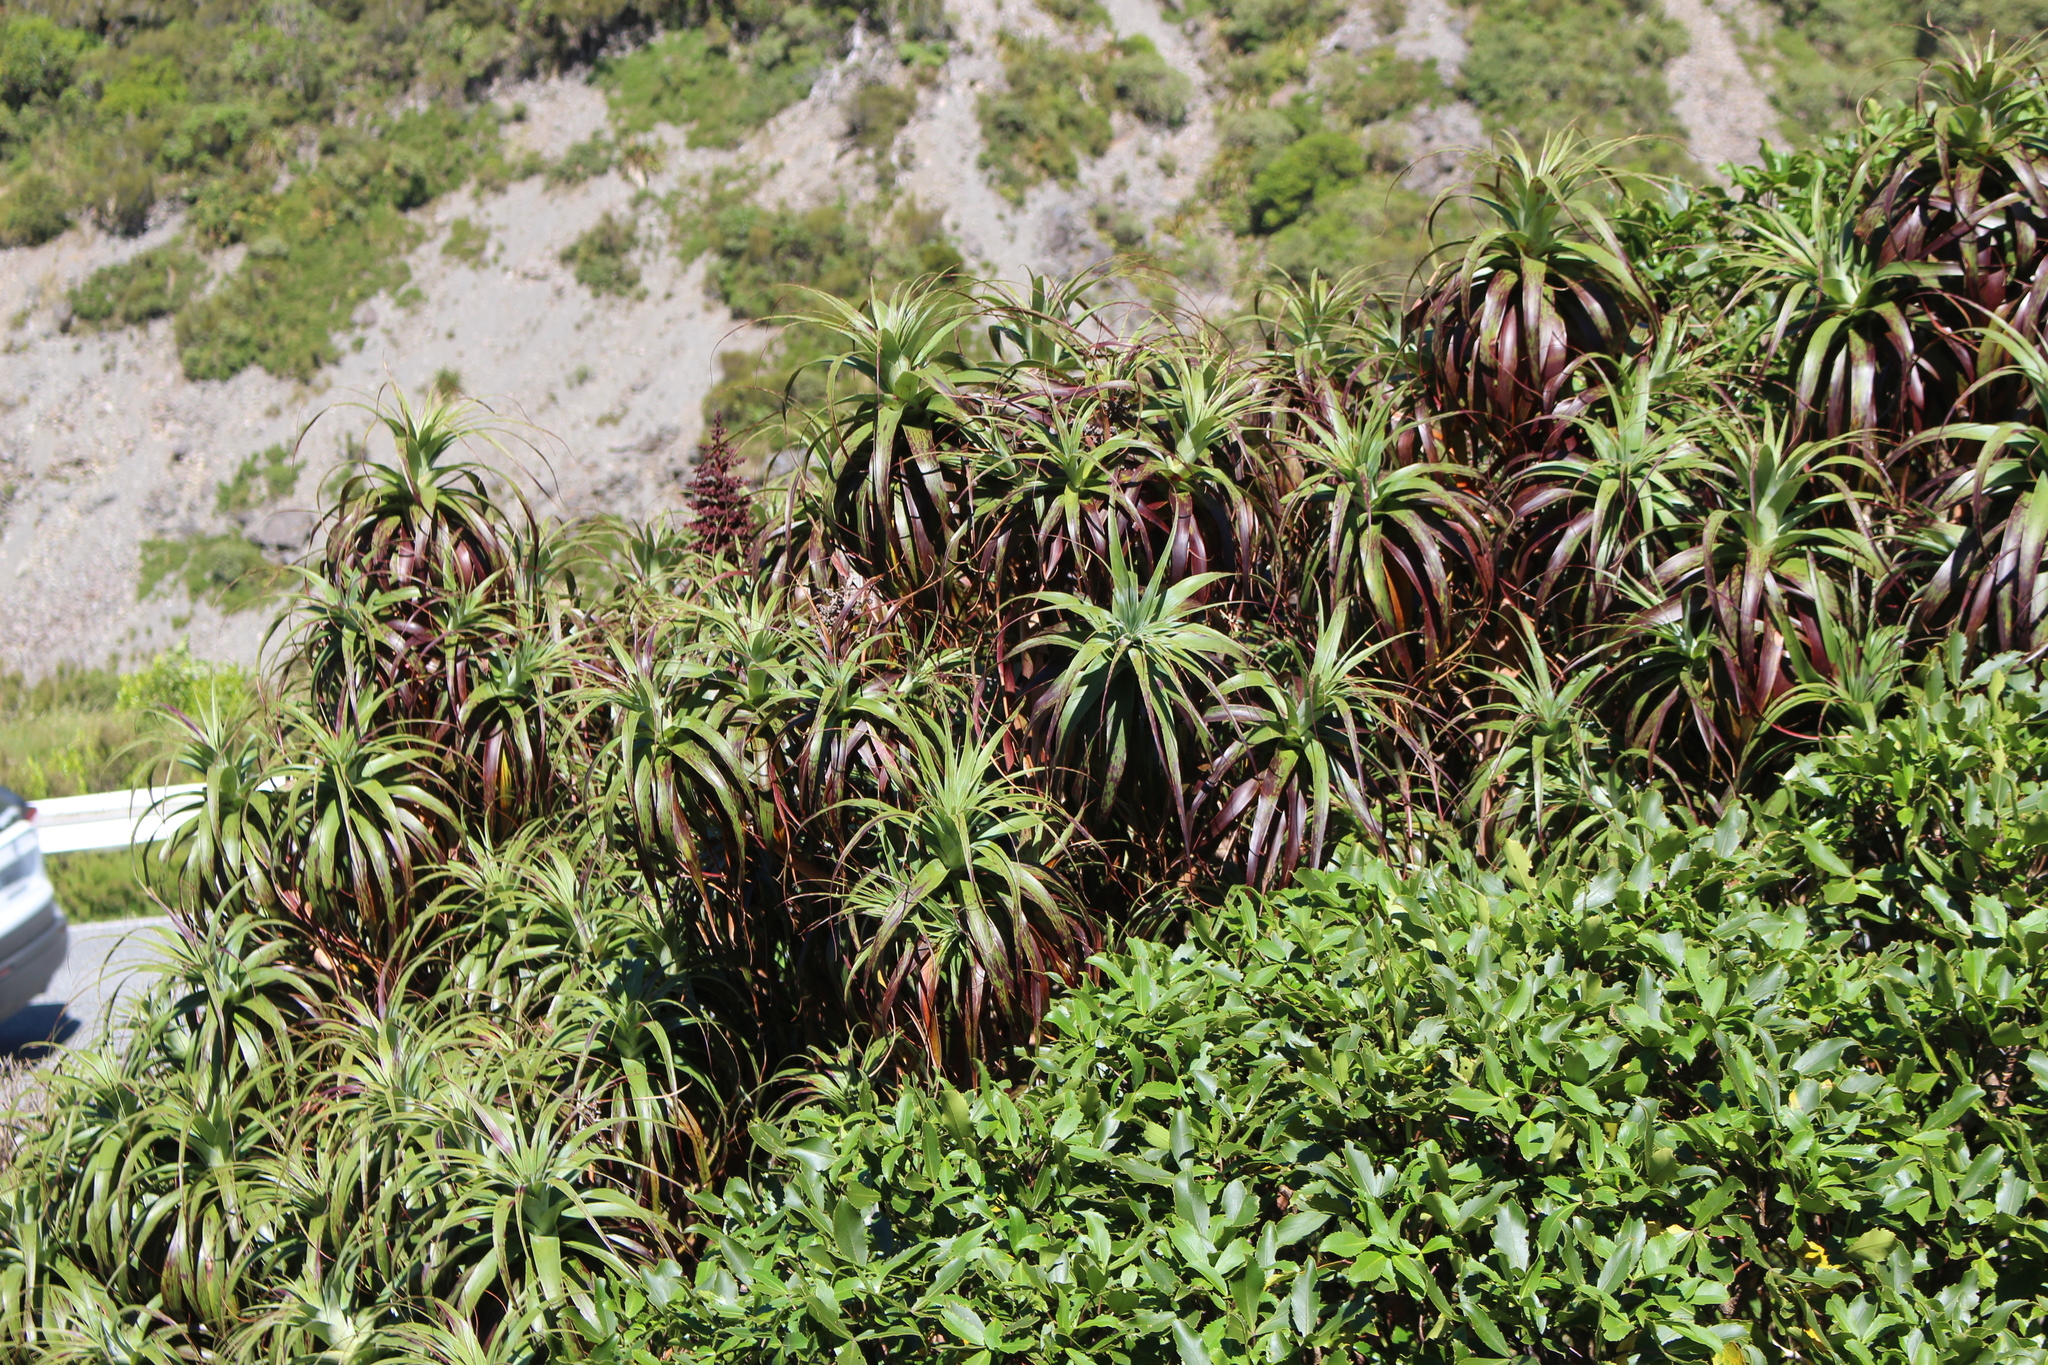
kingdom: Plantae
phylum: Tracheophyta
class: Magnoliopsida
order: Ericales
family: Ericaceae
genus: Dracophyllum
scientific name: Dracophyllum traversii
